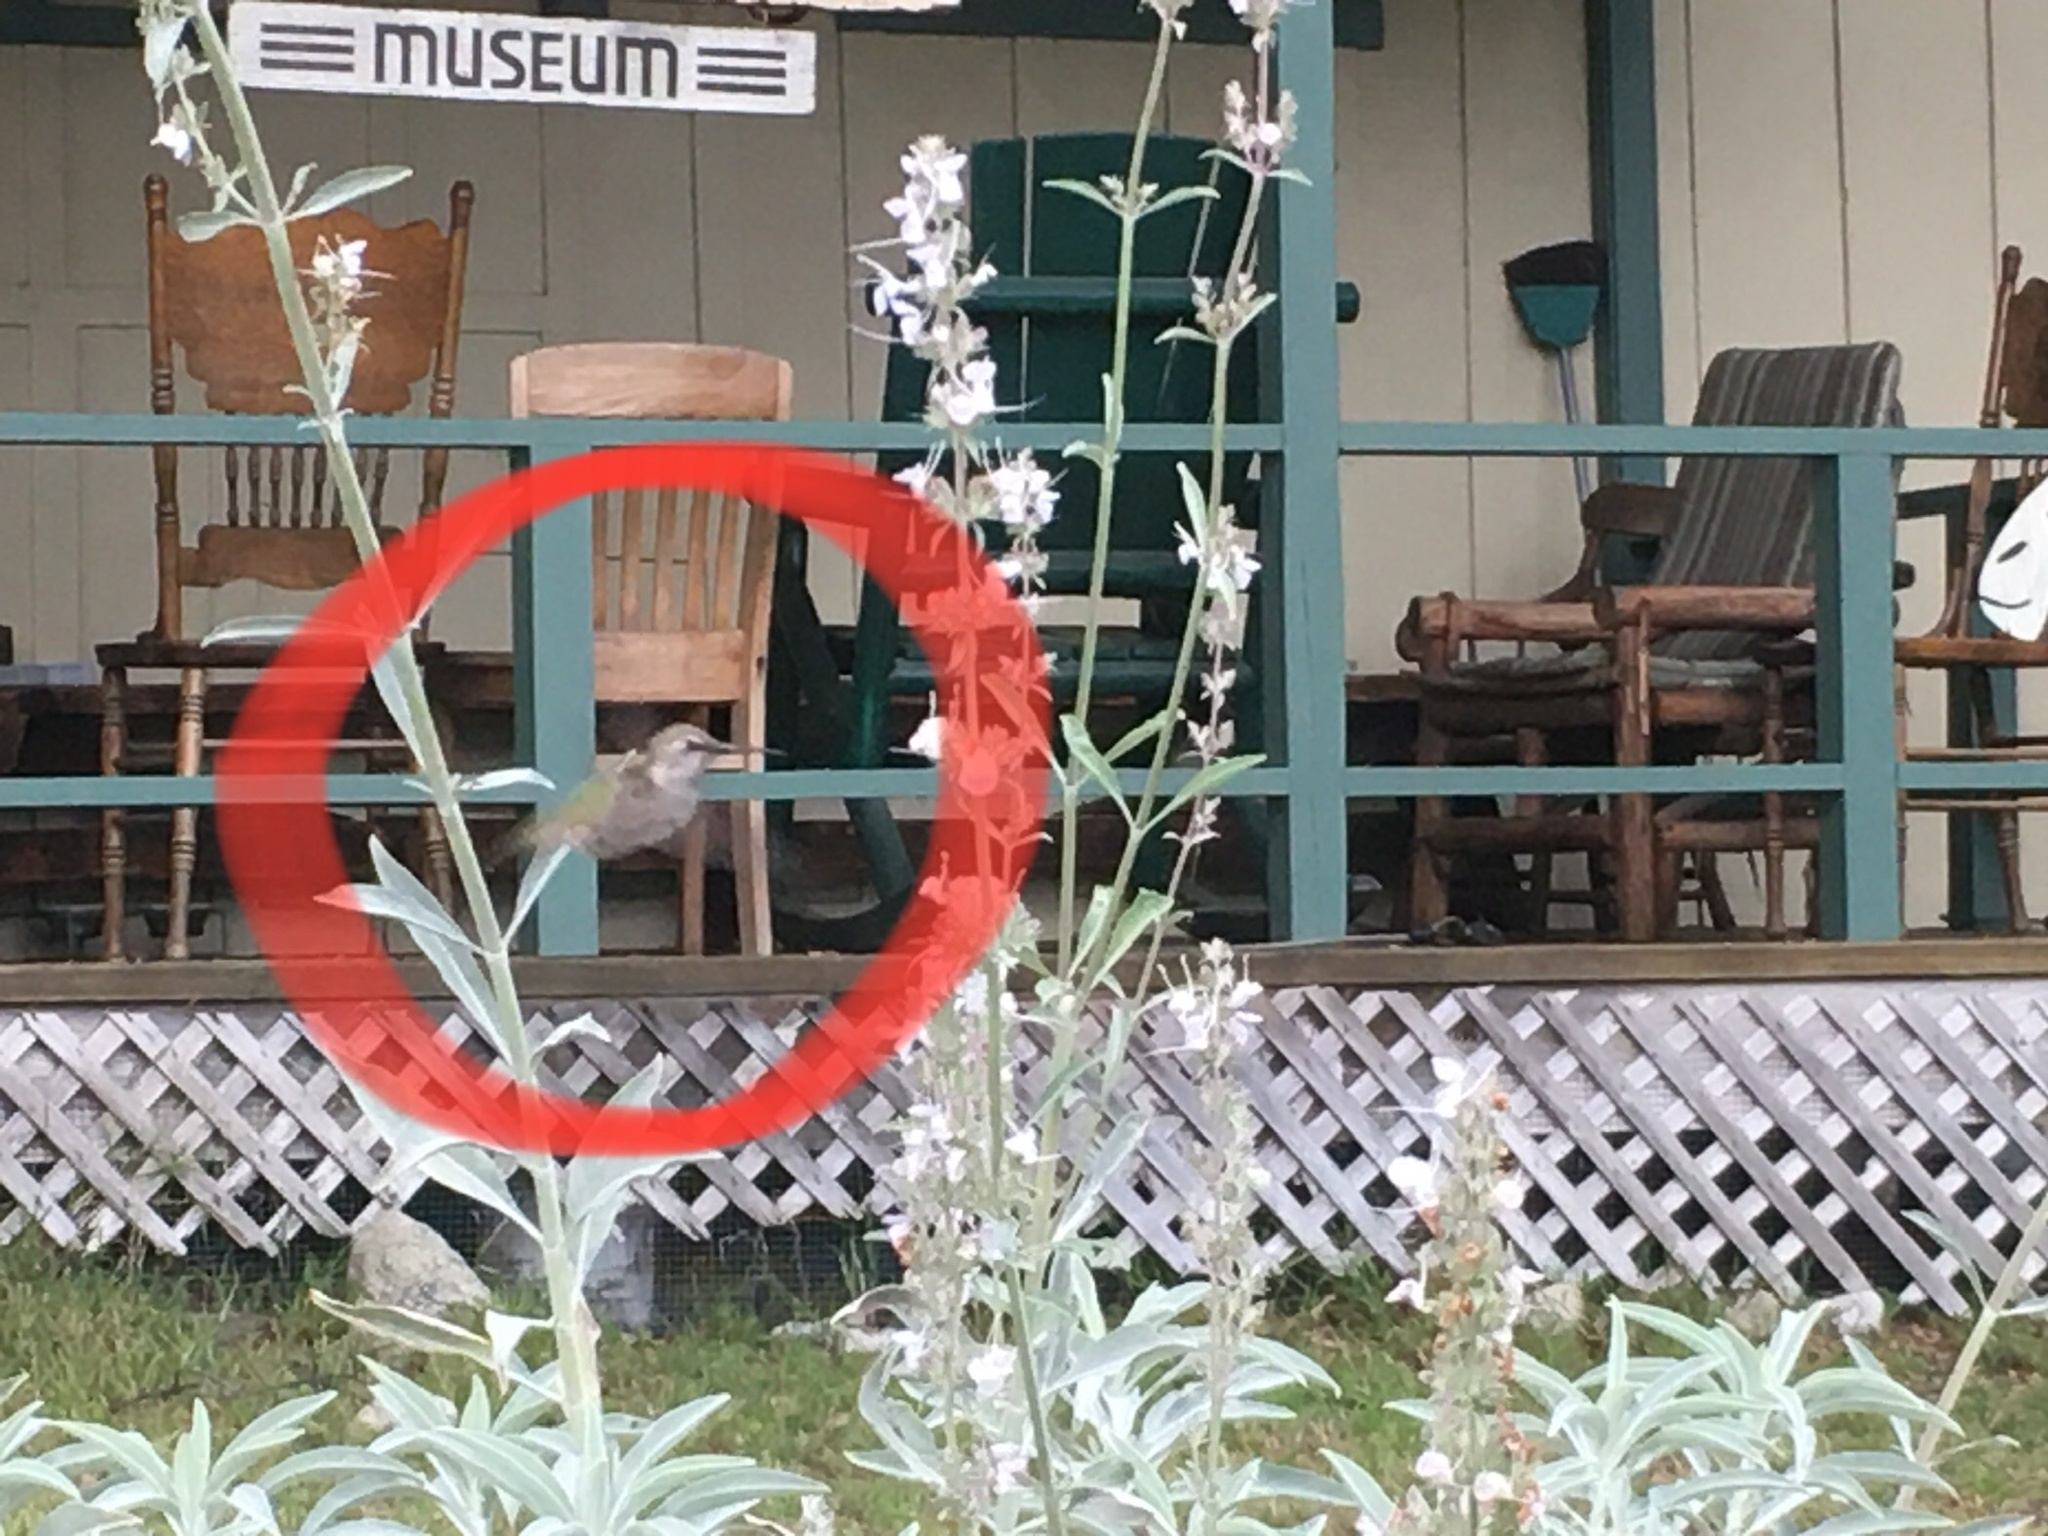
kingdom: Animalia
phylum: Chordata
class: Aves
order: Apodiformes
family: Trochilidae
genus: Calypte
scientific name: Calypte anna
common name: Anna's hummingbird
